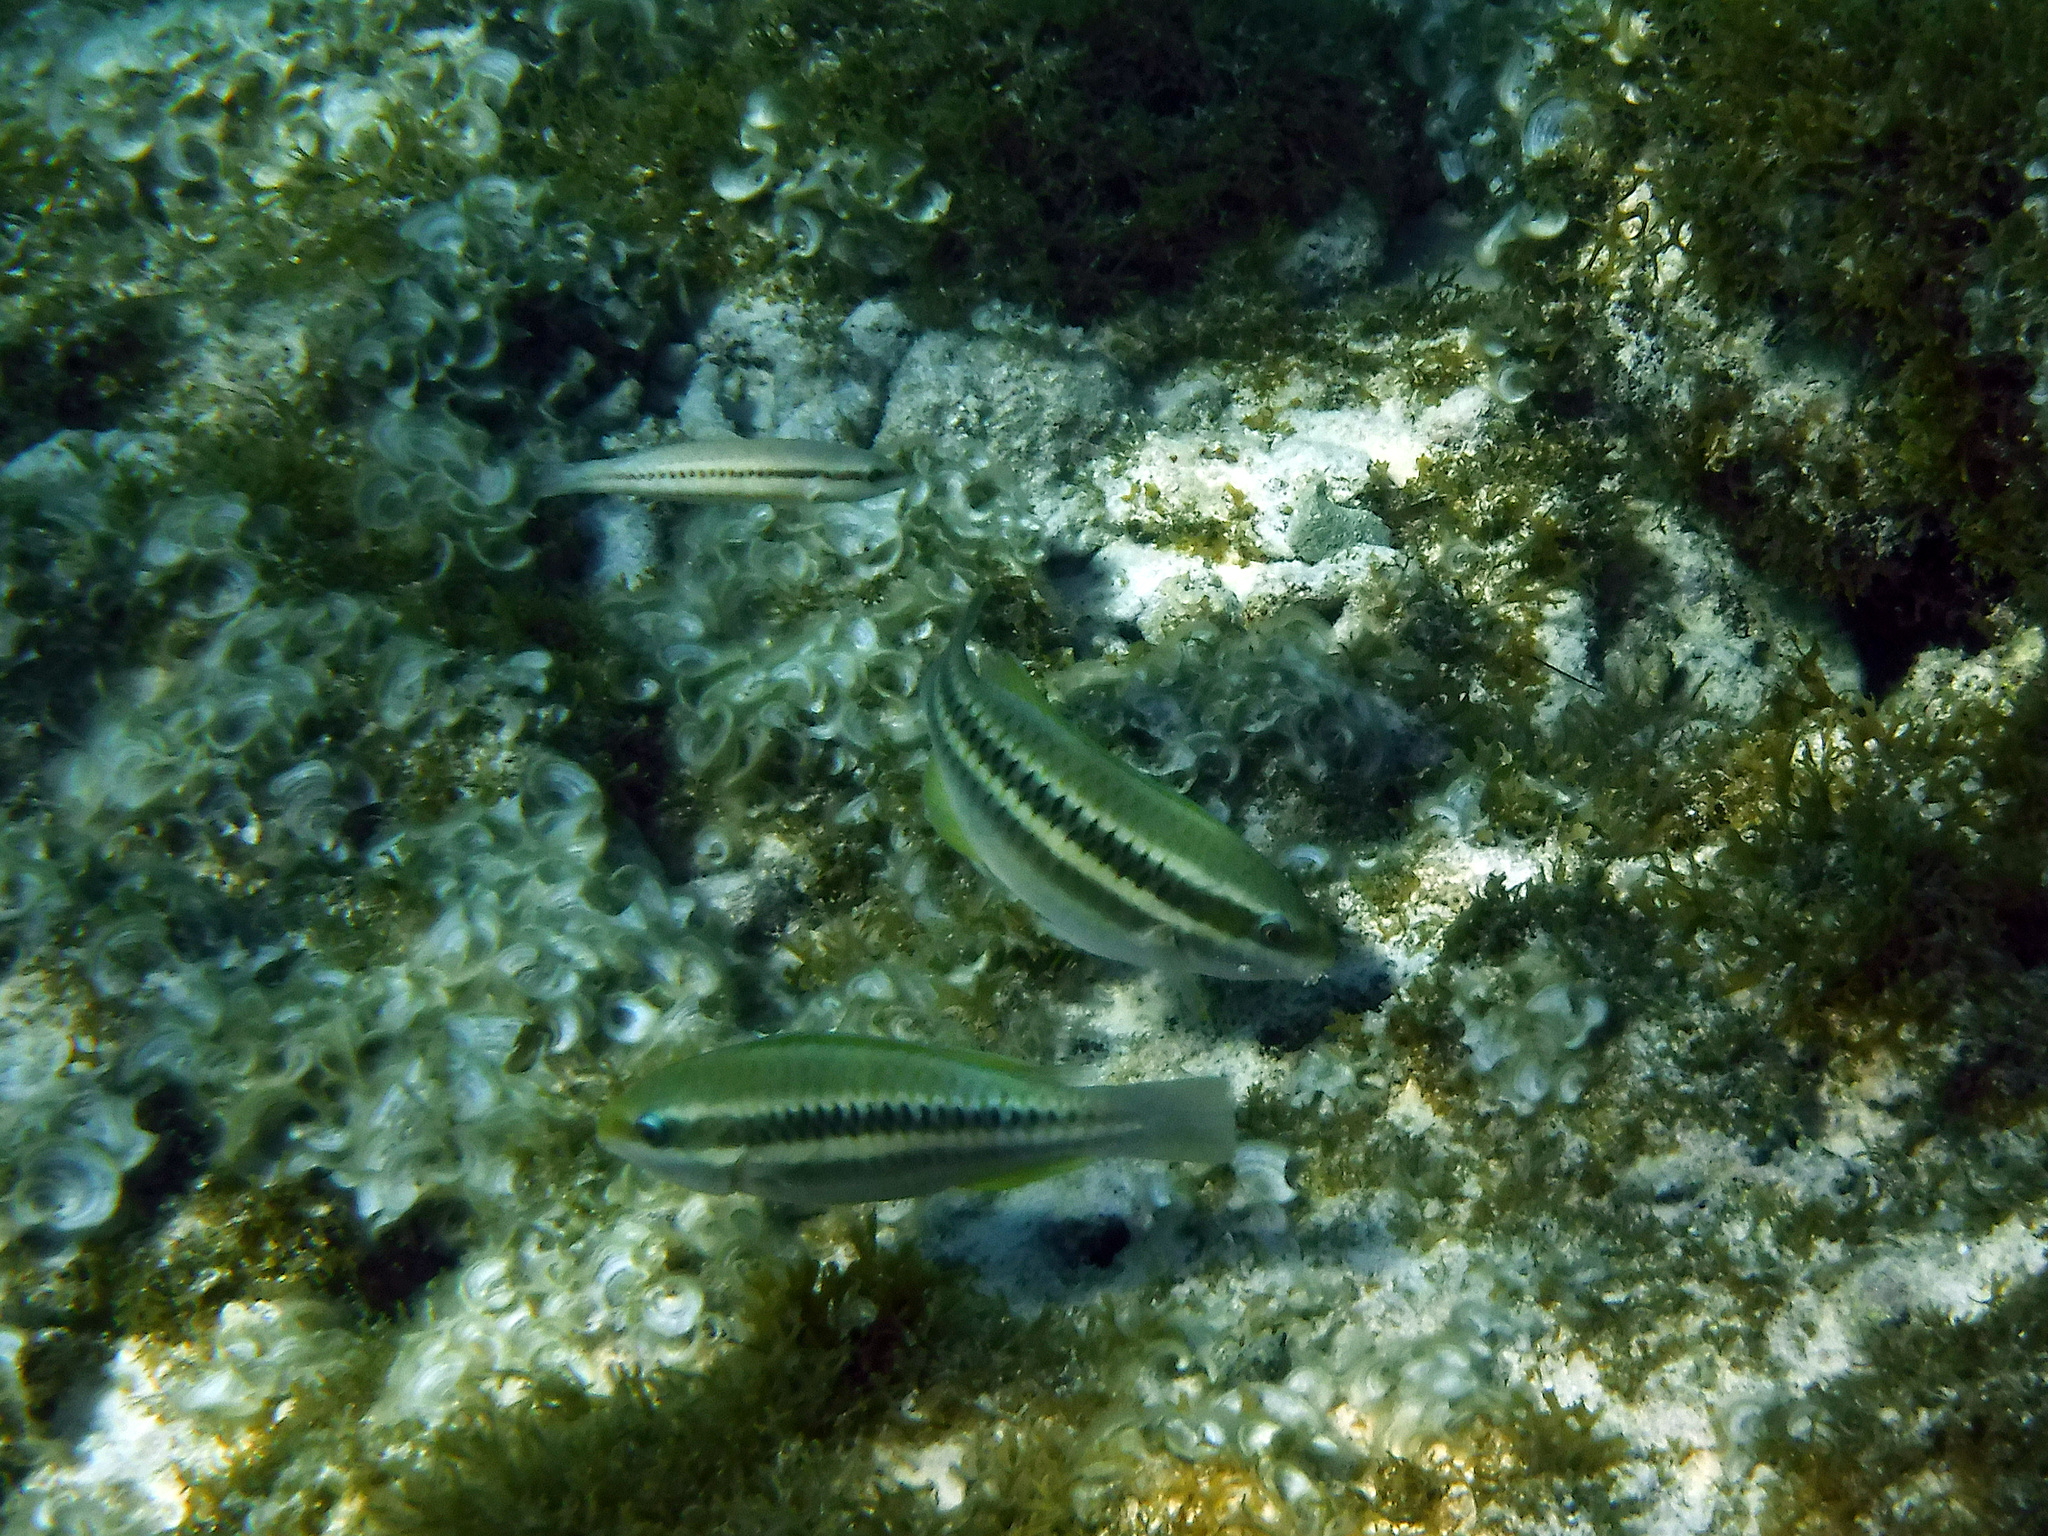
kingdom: Animalia
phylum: Chordata
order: Perciformes
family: Scaridae
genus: Scarus
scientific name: Scarus iseri
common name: Striped parrotfish
